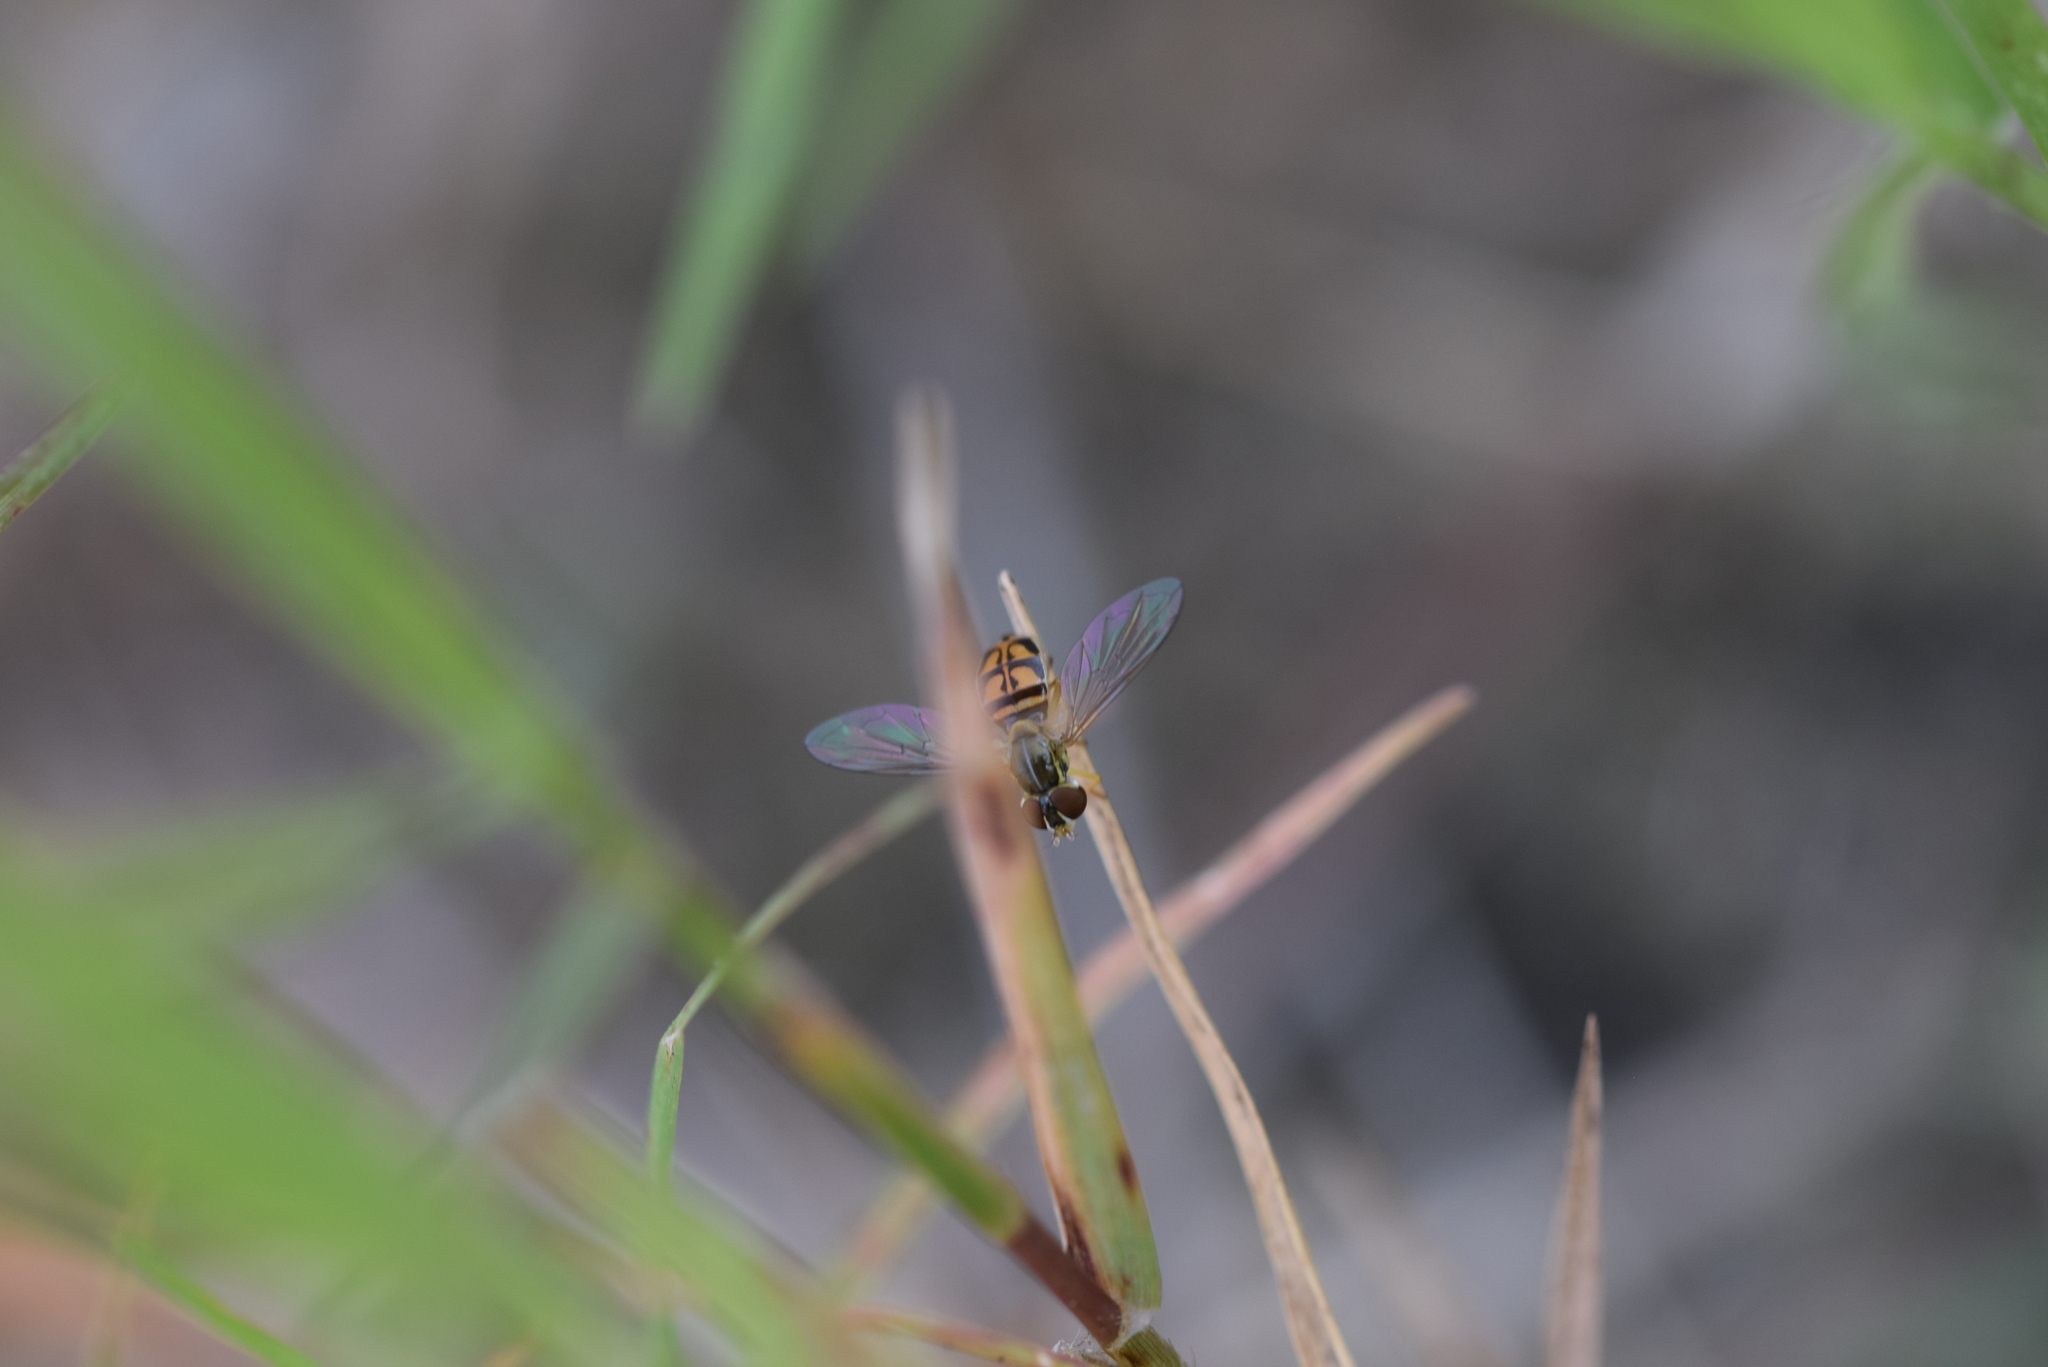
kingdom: Animalia
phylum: Arthropoda
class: Insecta
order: Diptera
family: Syrphidae
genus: Toxomerus
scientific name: Toxomerus marginatus
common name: Syrphid fly
